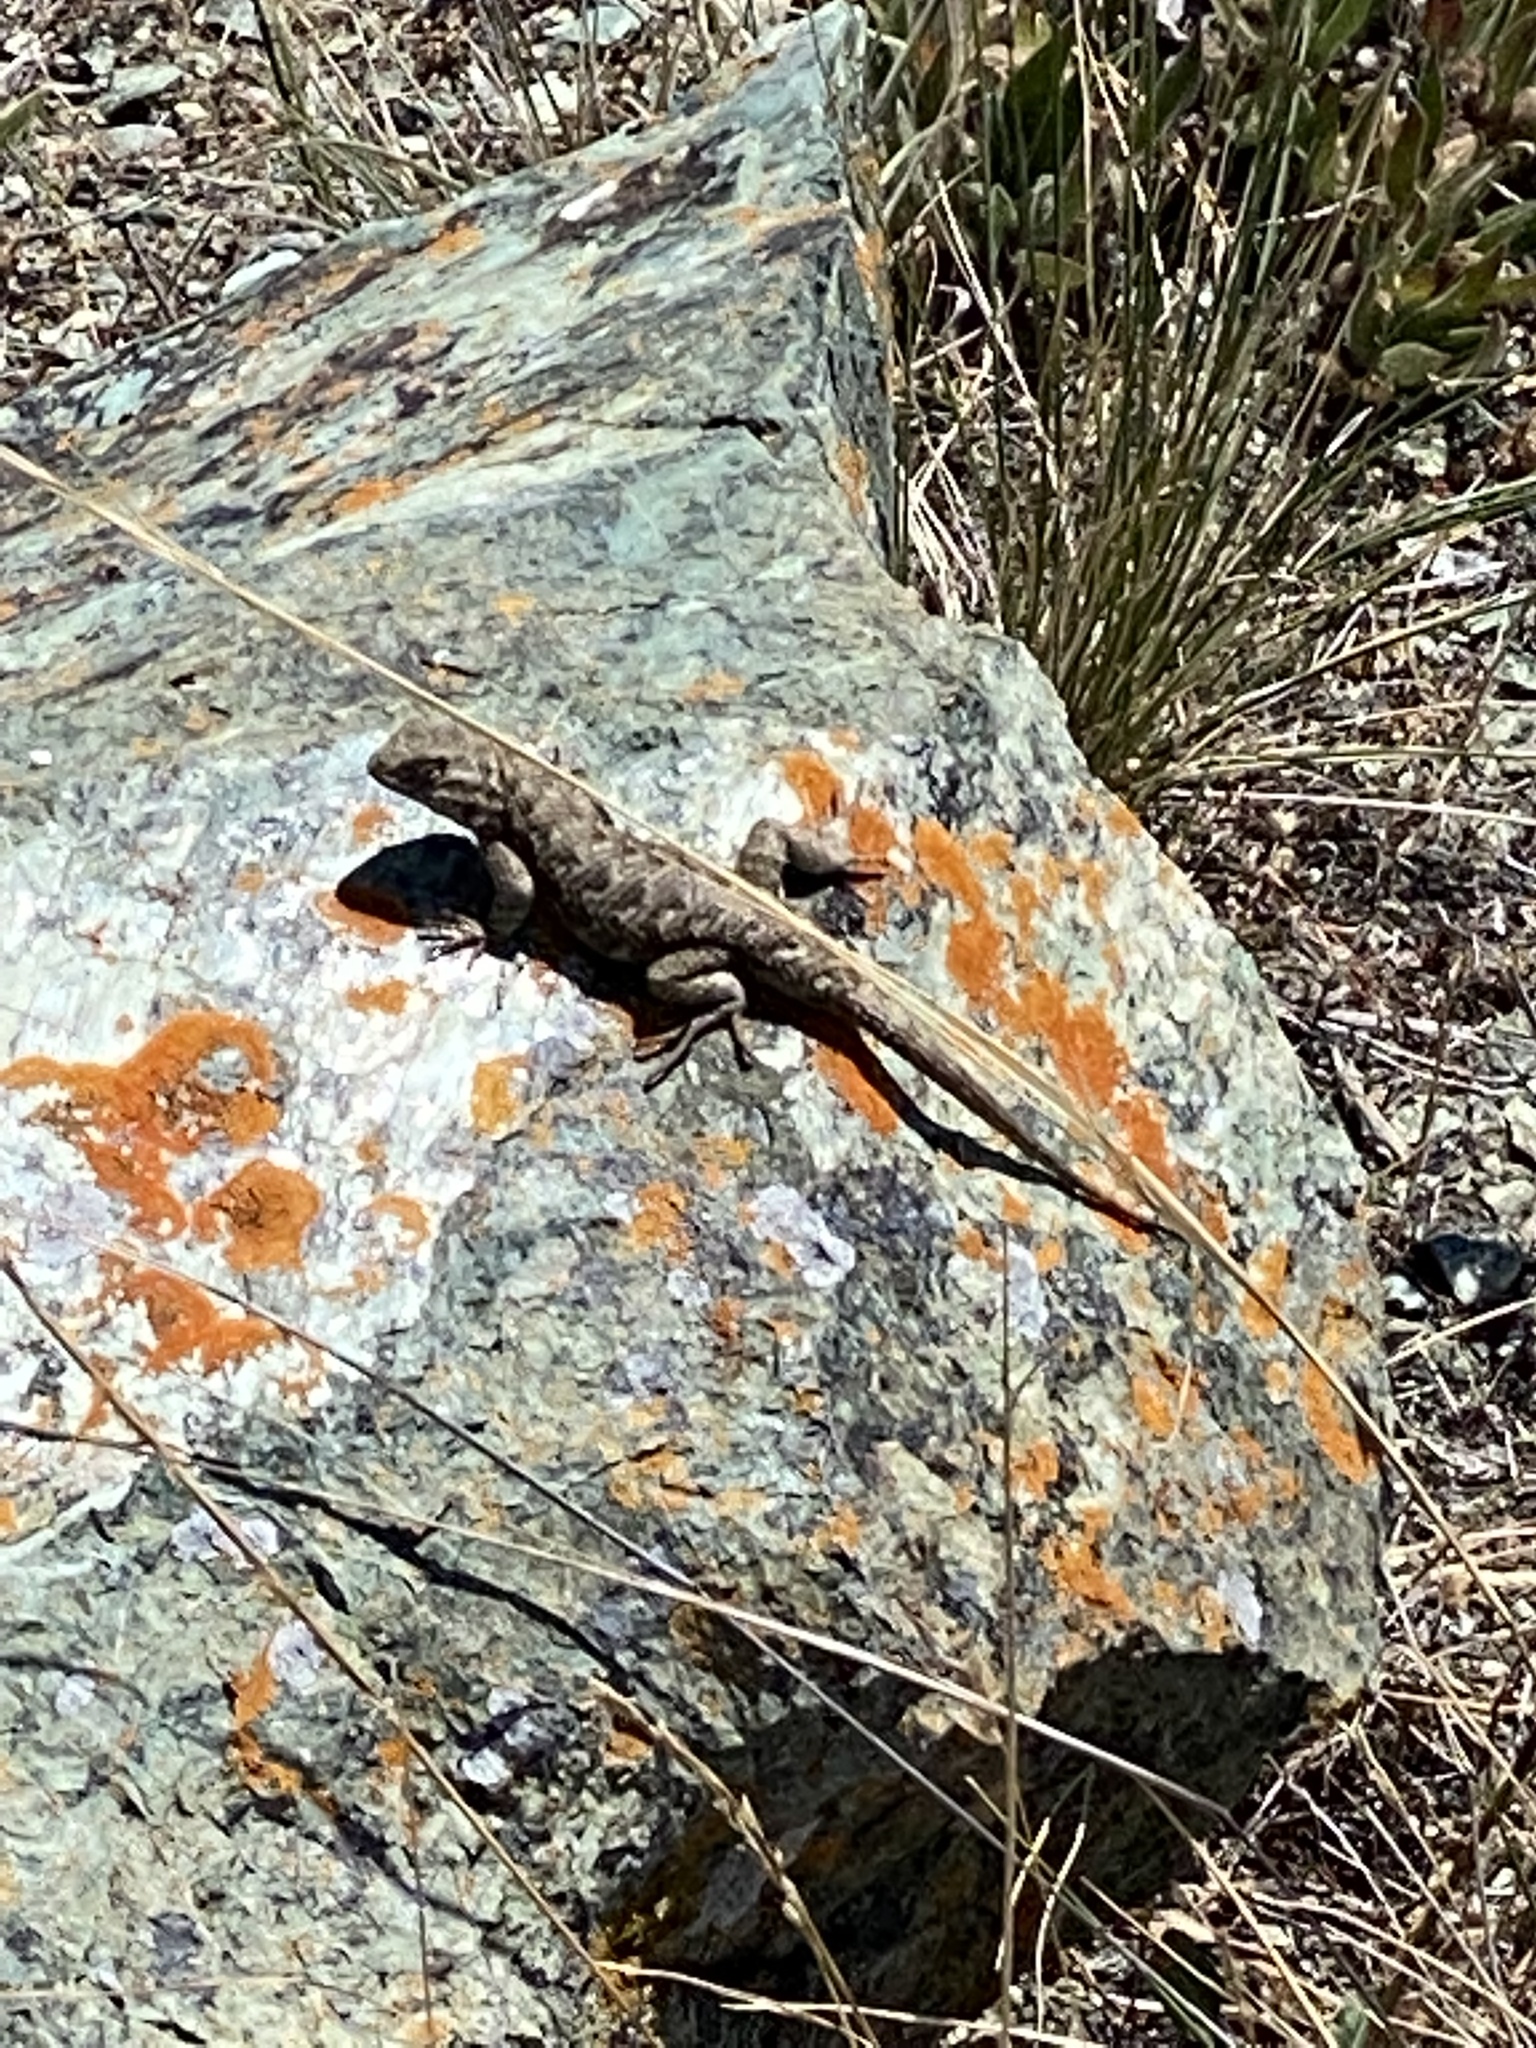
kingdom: Animalia
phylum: Chordata
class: Squamata
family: Phrynosomatidae
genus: Sceloporus
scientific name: Sceloporus occidentalis
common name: Western fence lizard
